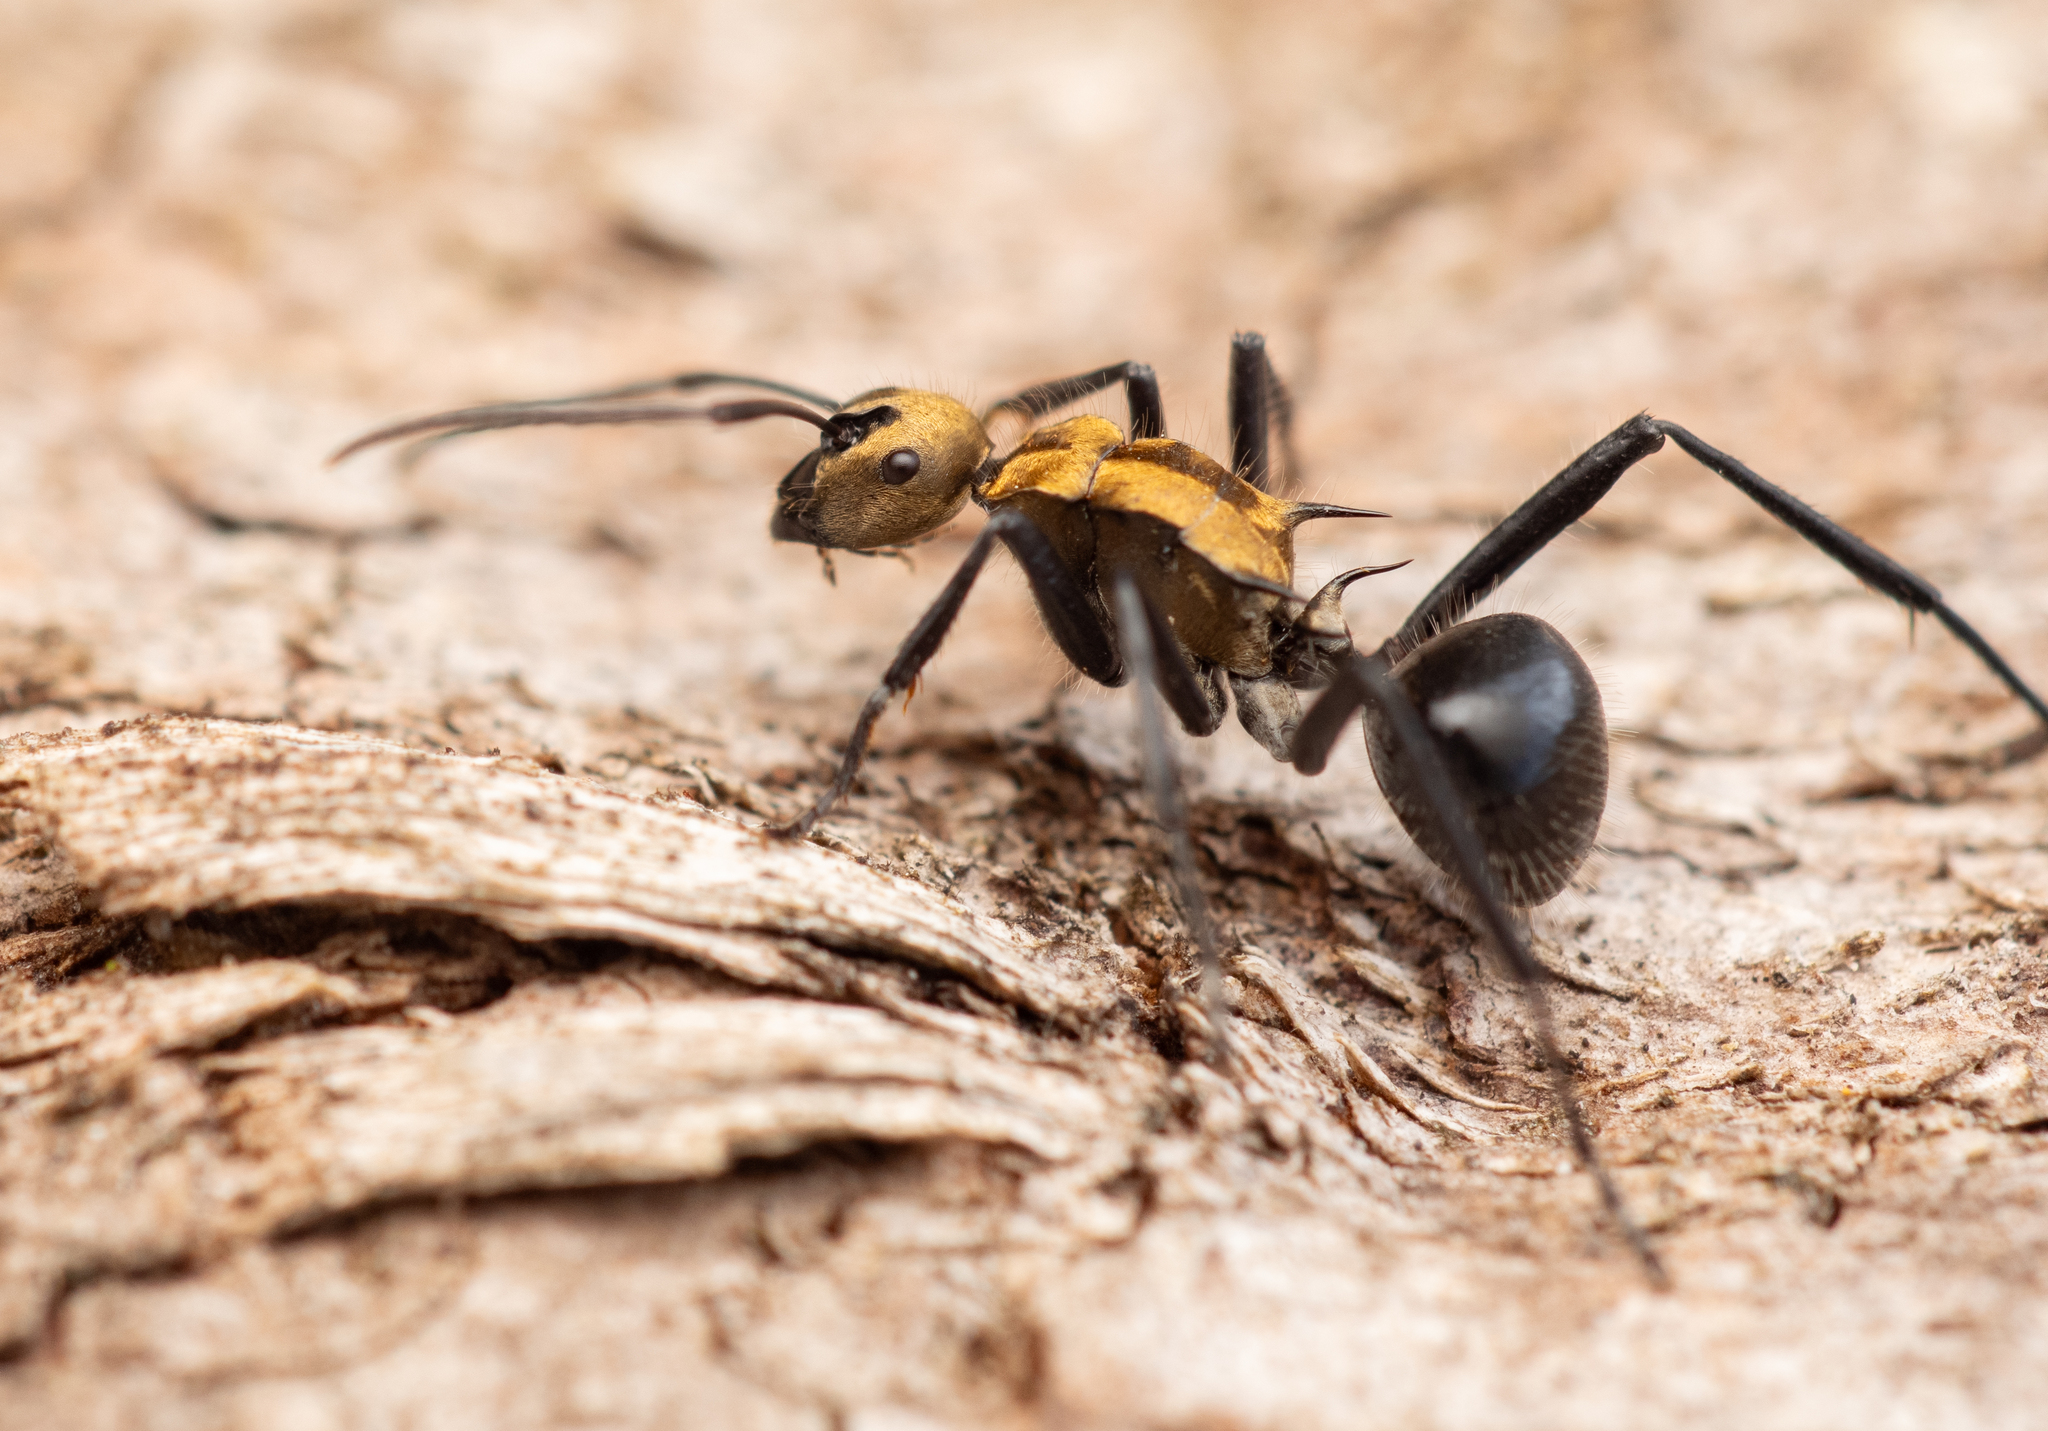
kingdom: Animalia
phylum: Arthropoda
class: Insecta
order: Hymenoptera
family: Formicidae
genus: Polyrhachis
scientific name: Polyrhachis semiaurata
